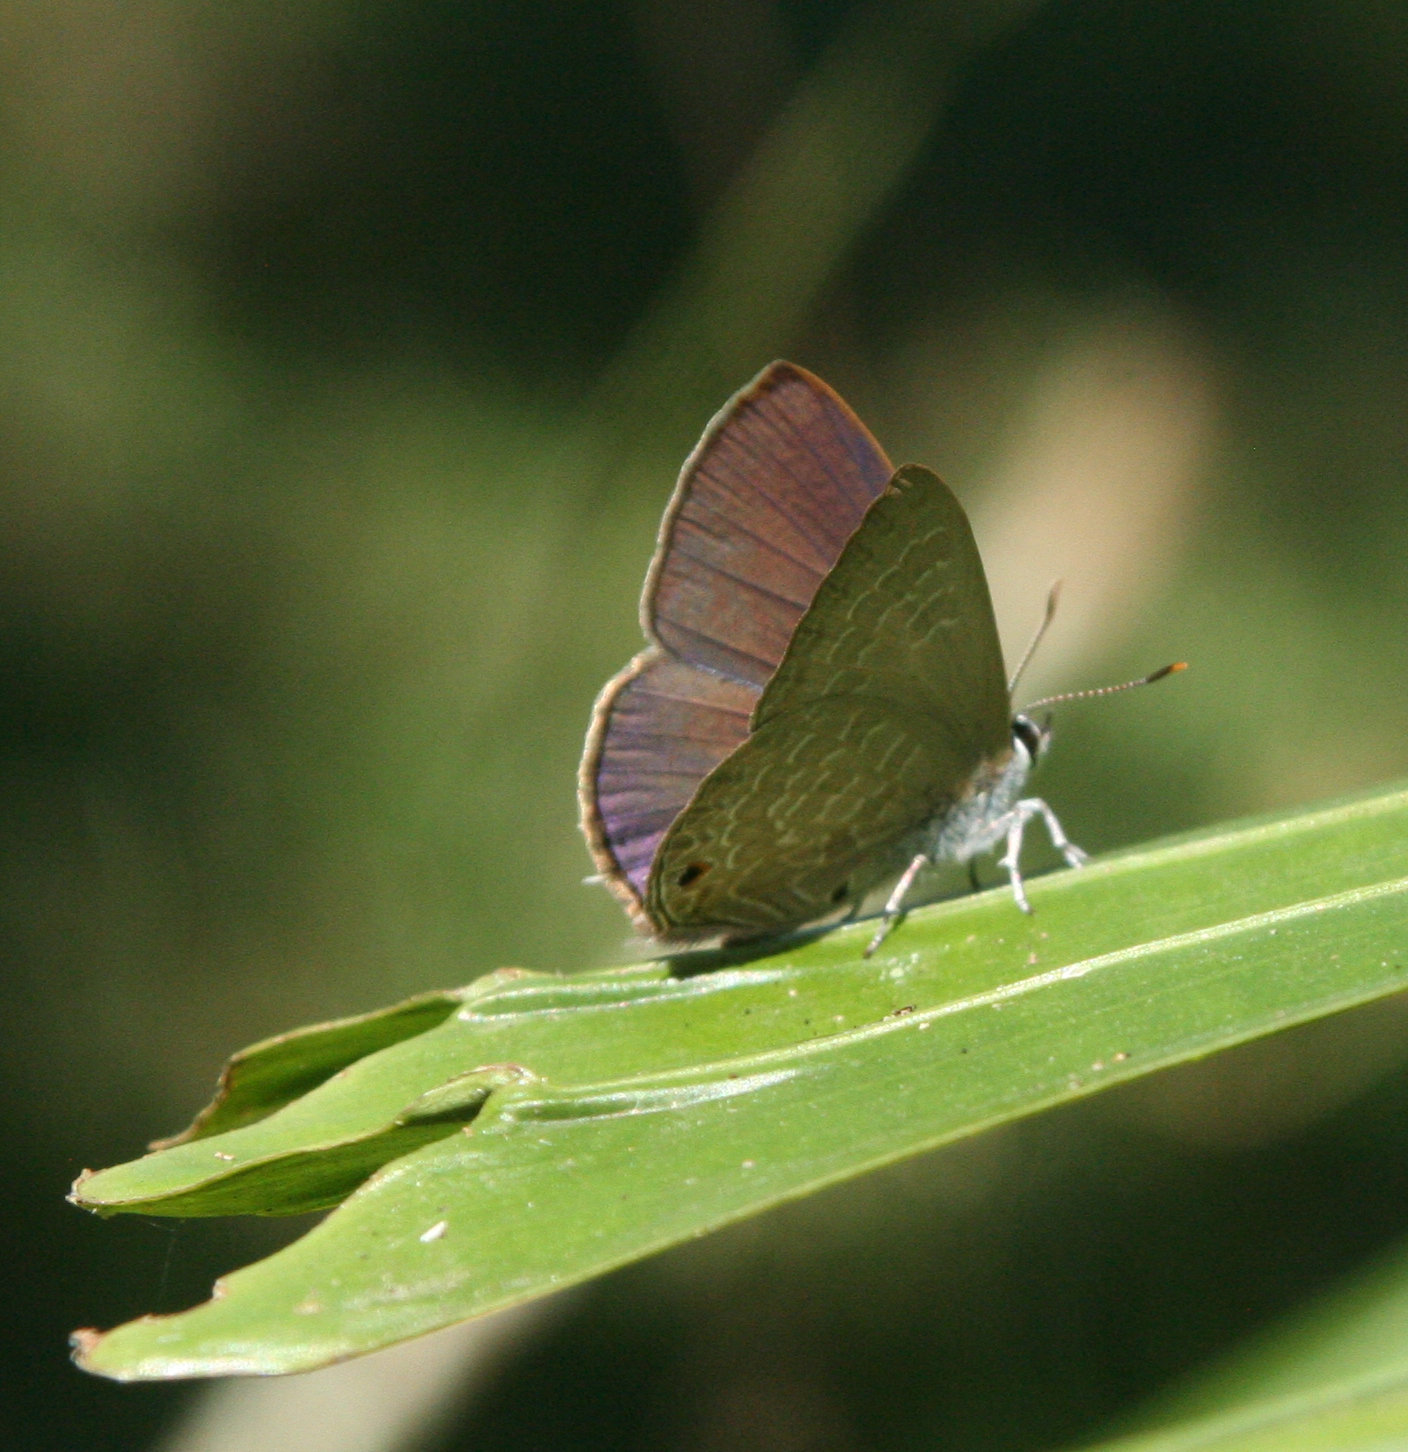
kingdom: Animalia
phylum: Arthropoda
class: Insecta
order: Lepidoptera
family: Lycaenidae
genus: Anthene
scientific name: Anthene emolus
